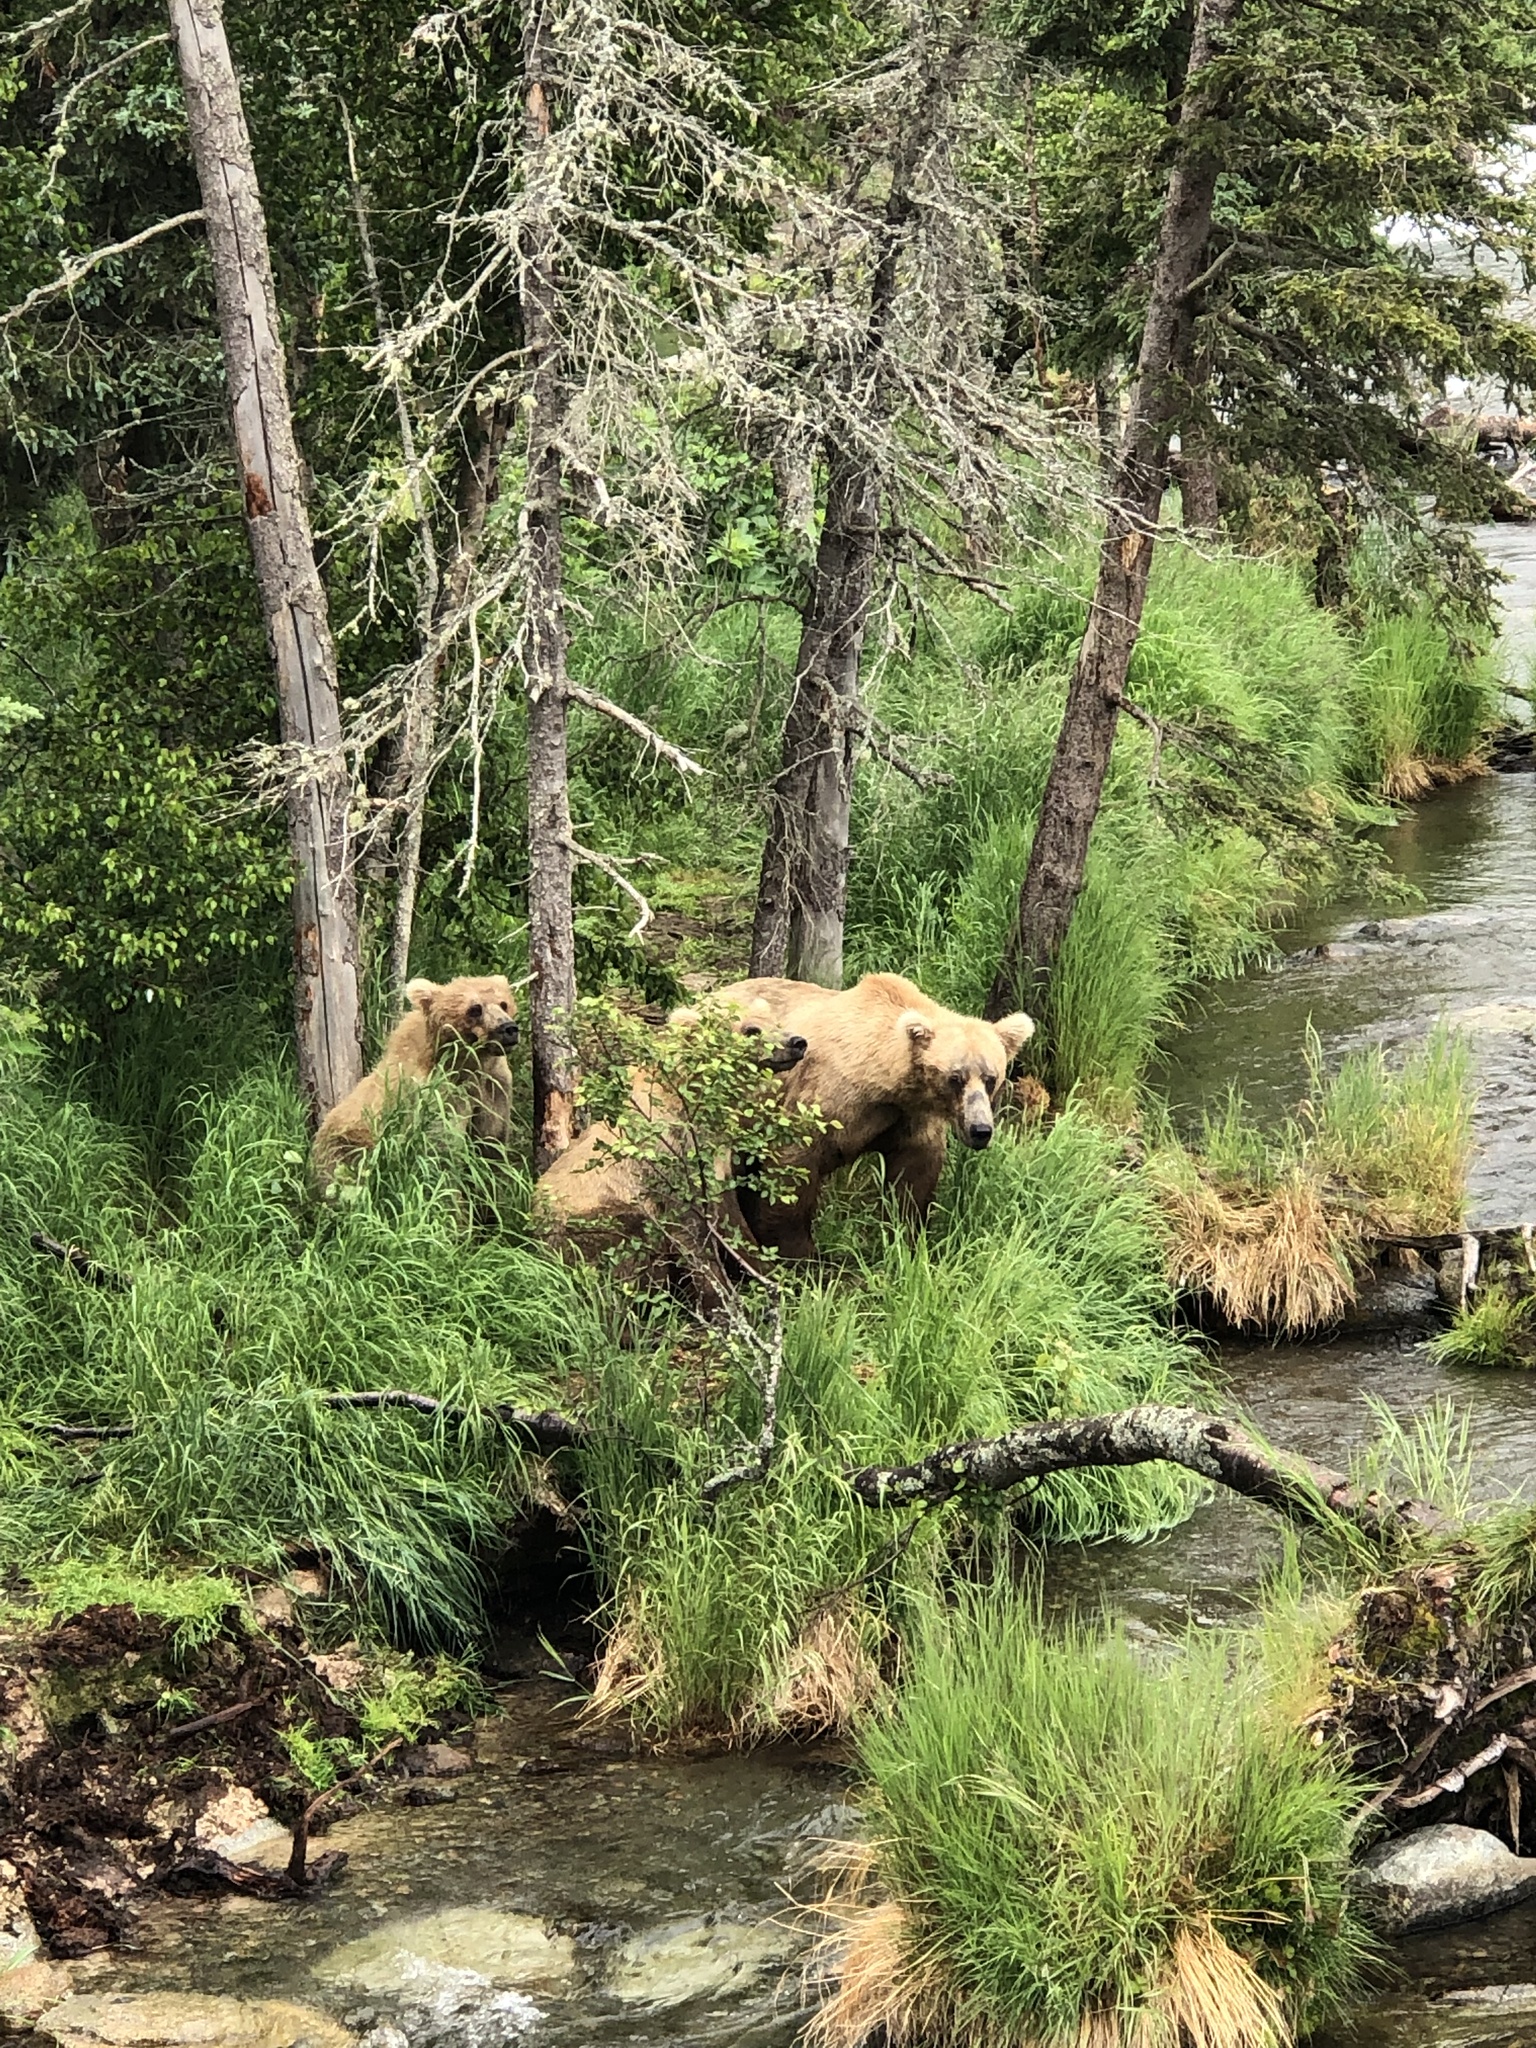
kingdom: Animalia
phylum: Chordata
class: Mammalia
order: Carnivora
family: Ursidae
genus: Ursus
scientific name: Ursus arctos
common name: Brown bear
